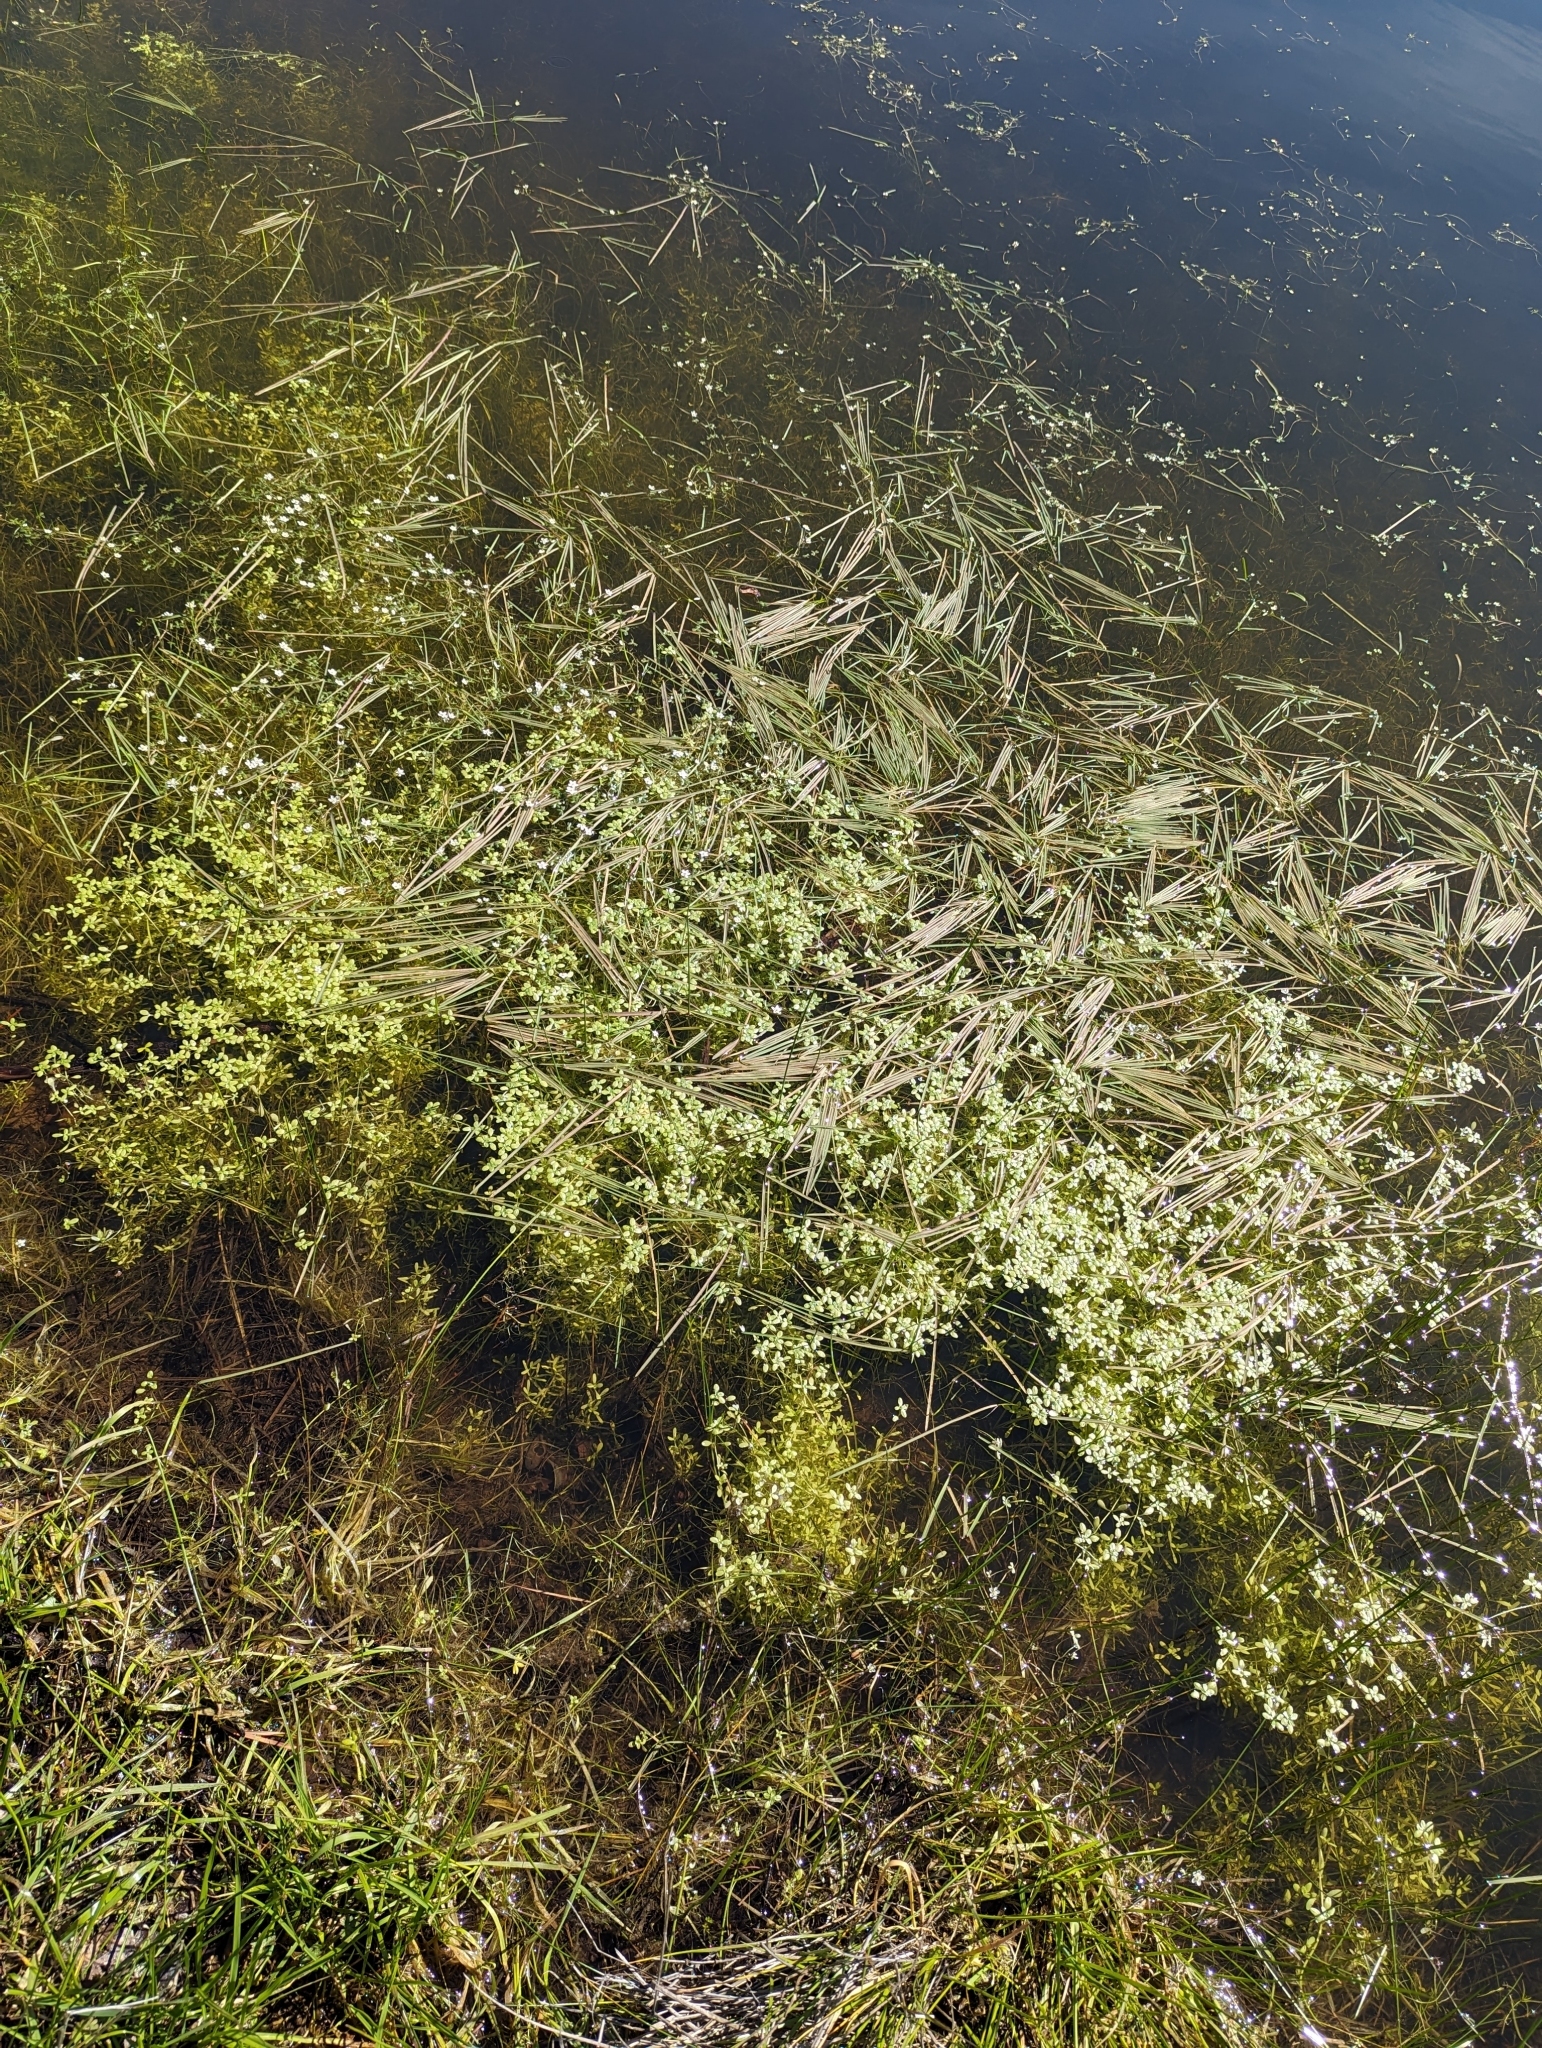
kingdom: Plantae
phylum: Tracheophyta
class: Magnoliopsida
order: Ranunculales
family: Ranunculaceae
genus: Ranunculus
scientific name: Ranunculus lobbii
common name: Lobb's buttercup
